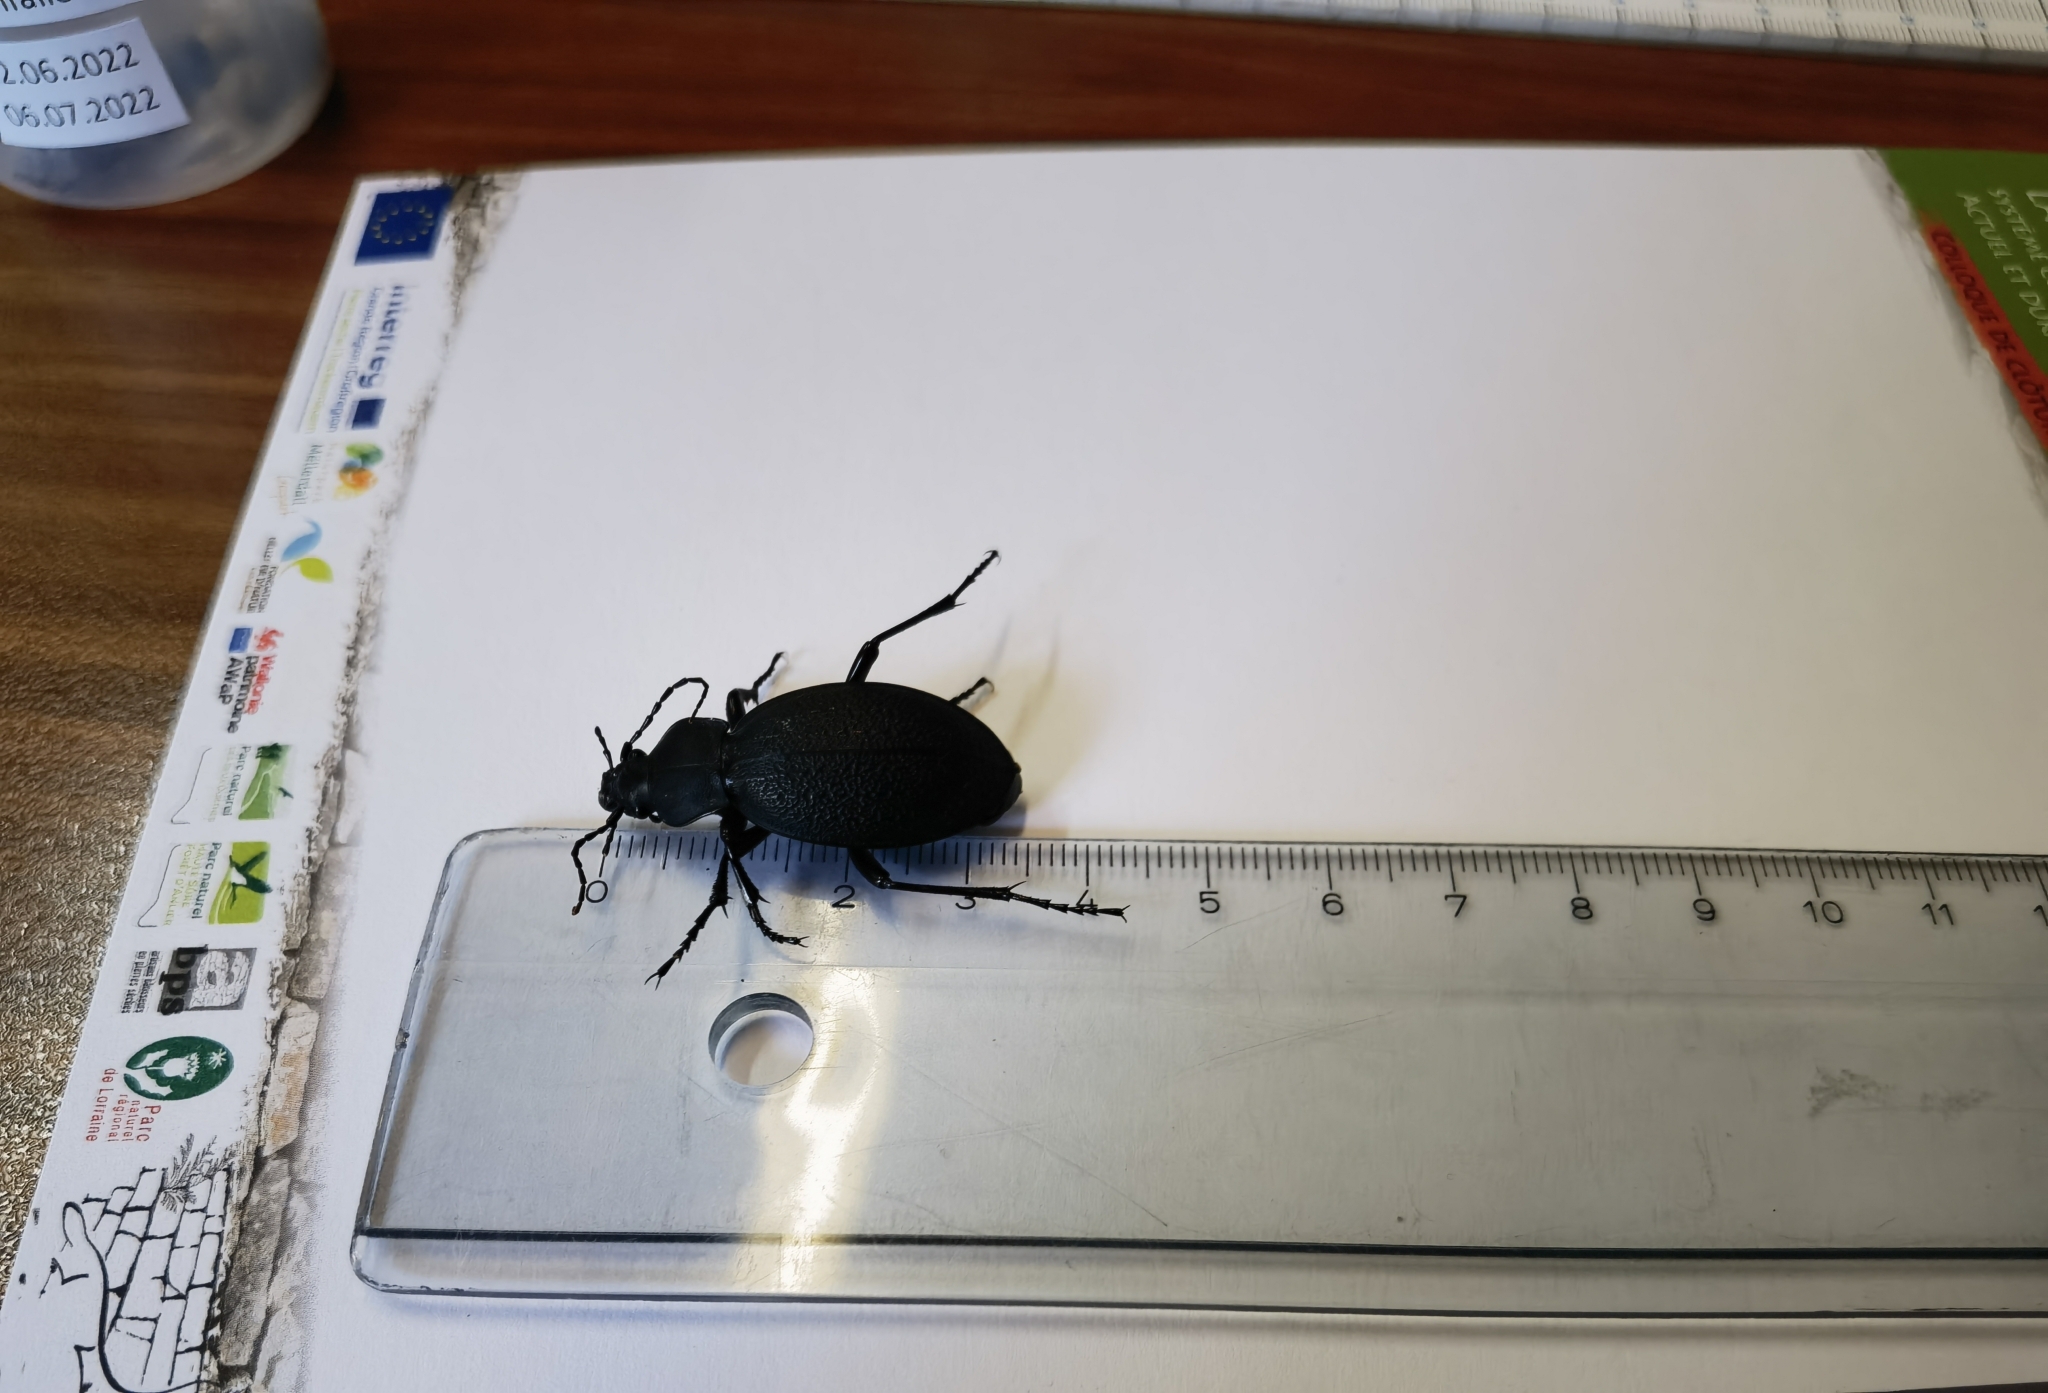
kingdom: Animalia
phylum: Arthropoda
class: Insecta
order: Coleoptera
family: Carabidae
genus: Carabus
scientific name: Carabus coriaceus
